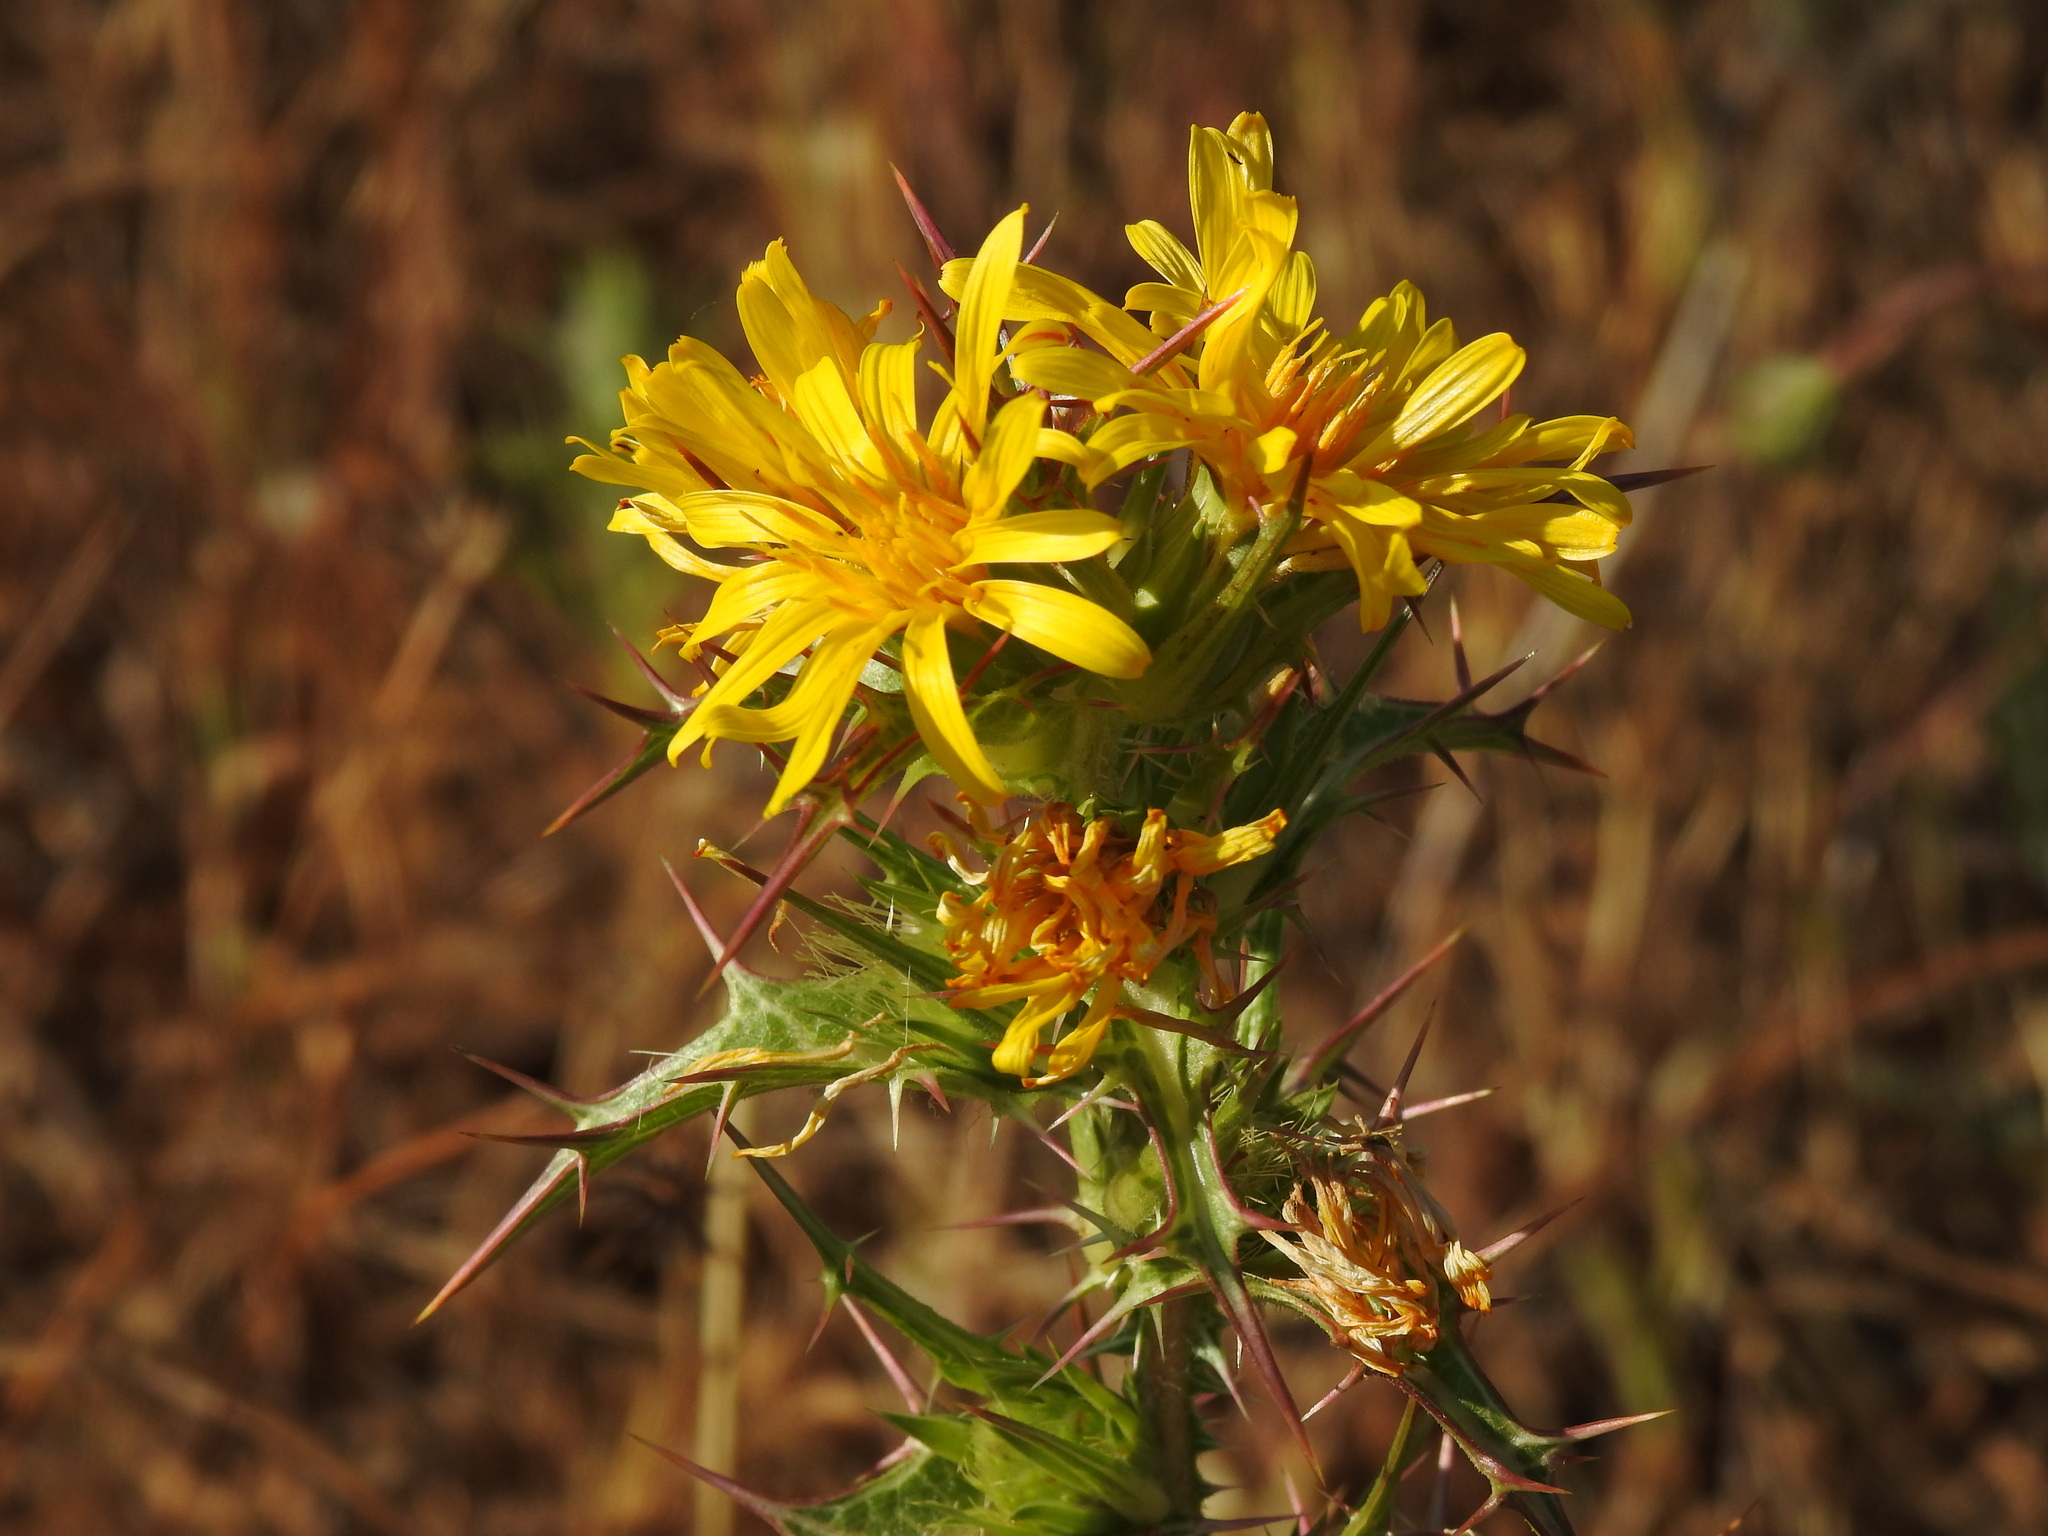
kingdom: Plantae
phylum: Tracheophyta
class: Magnoliopsida
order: Asterales
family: Asteraceae
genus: Scolymus
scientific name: Scolymus hispanicus
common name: Golden thistle
